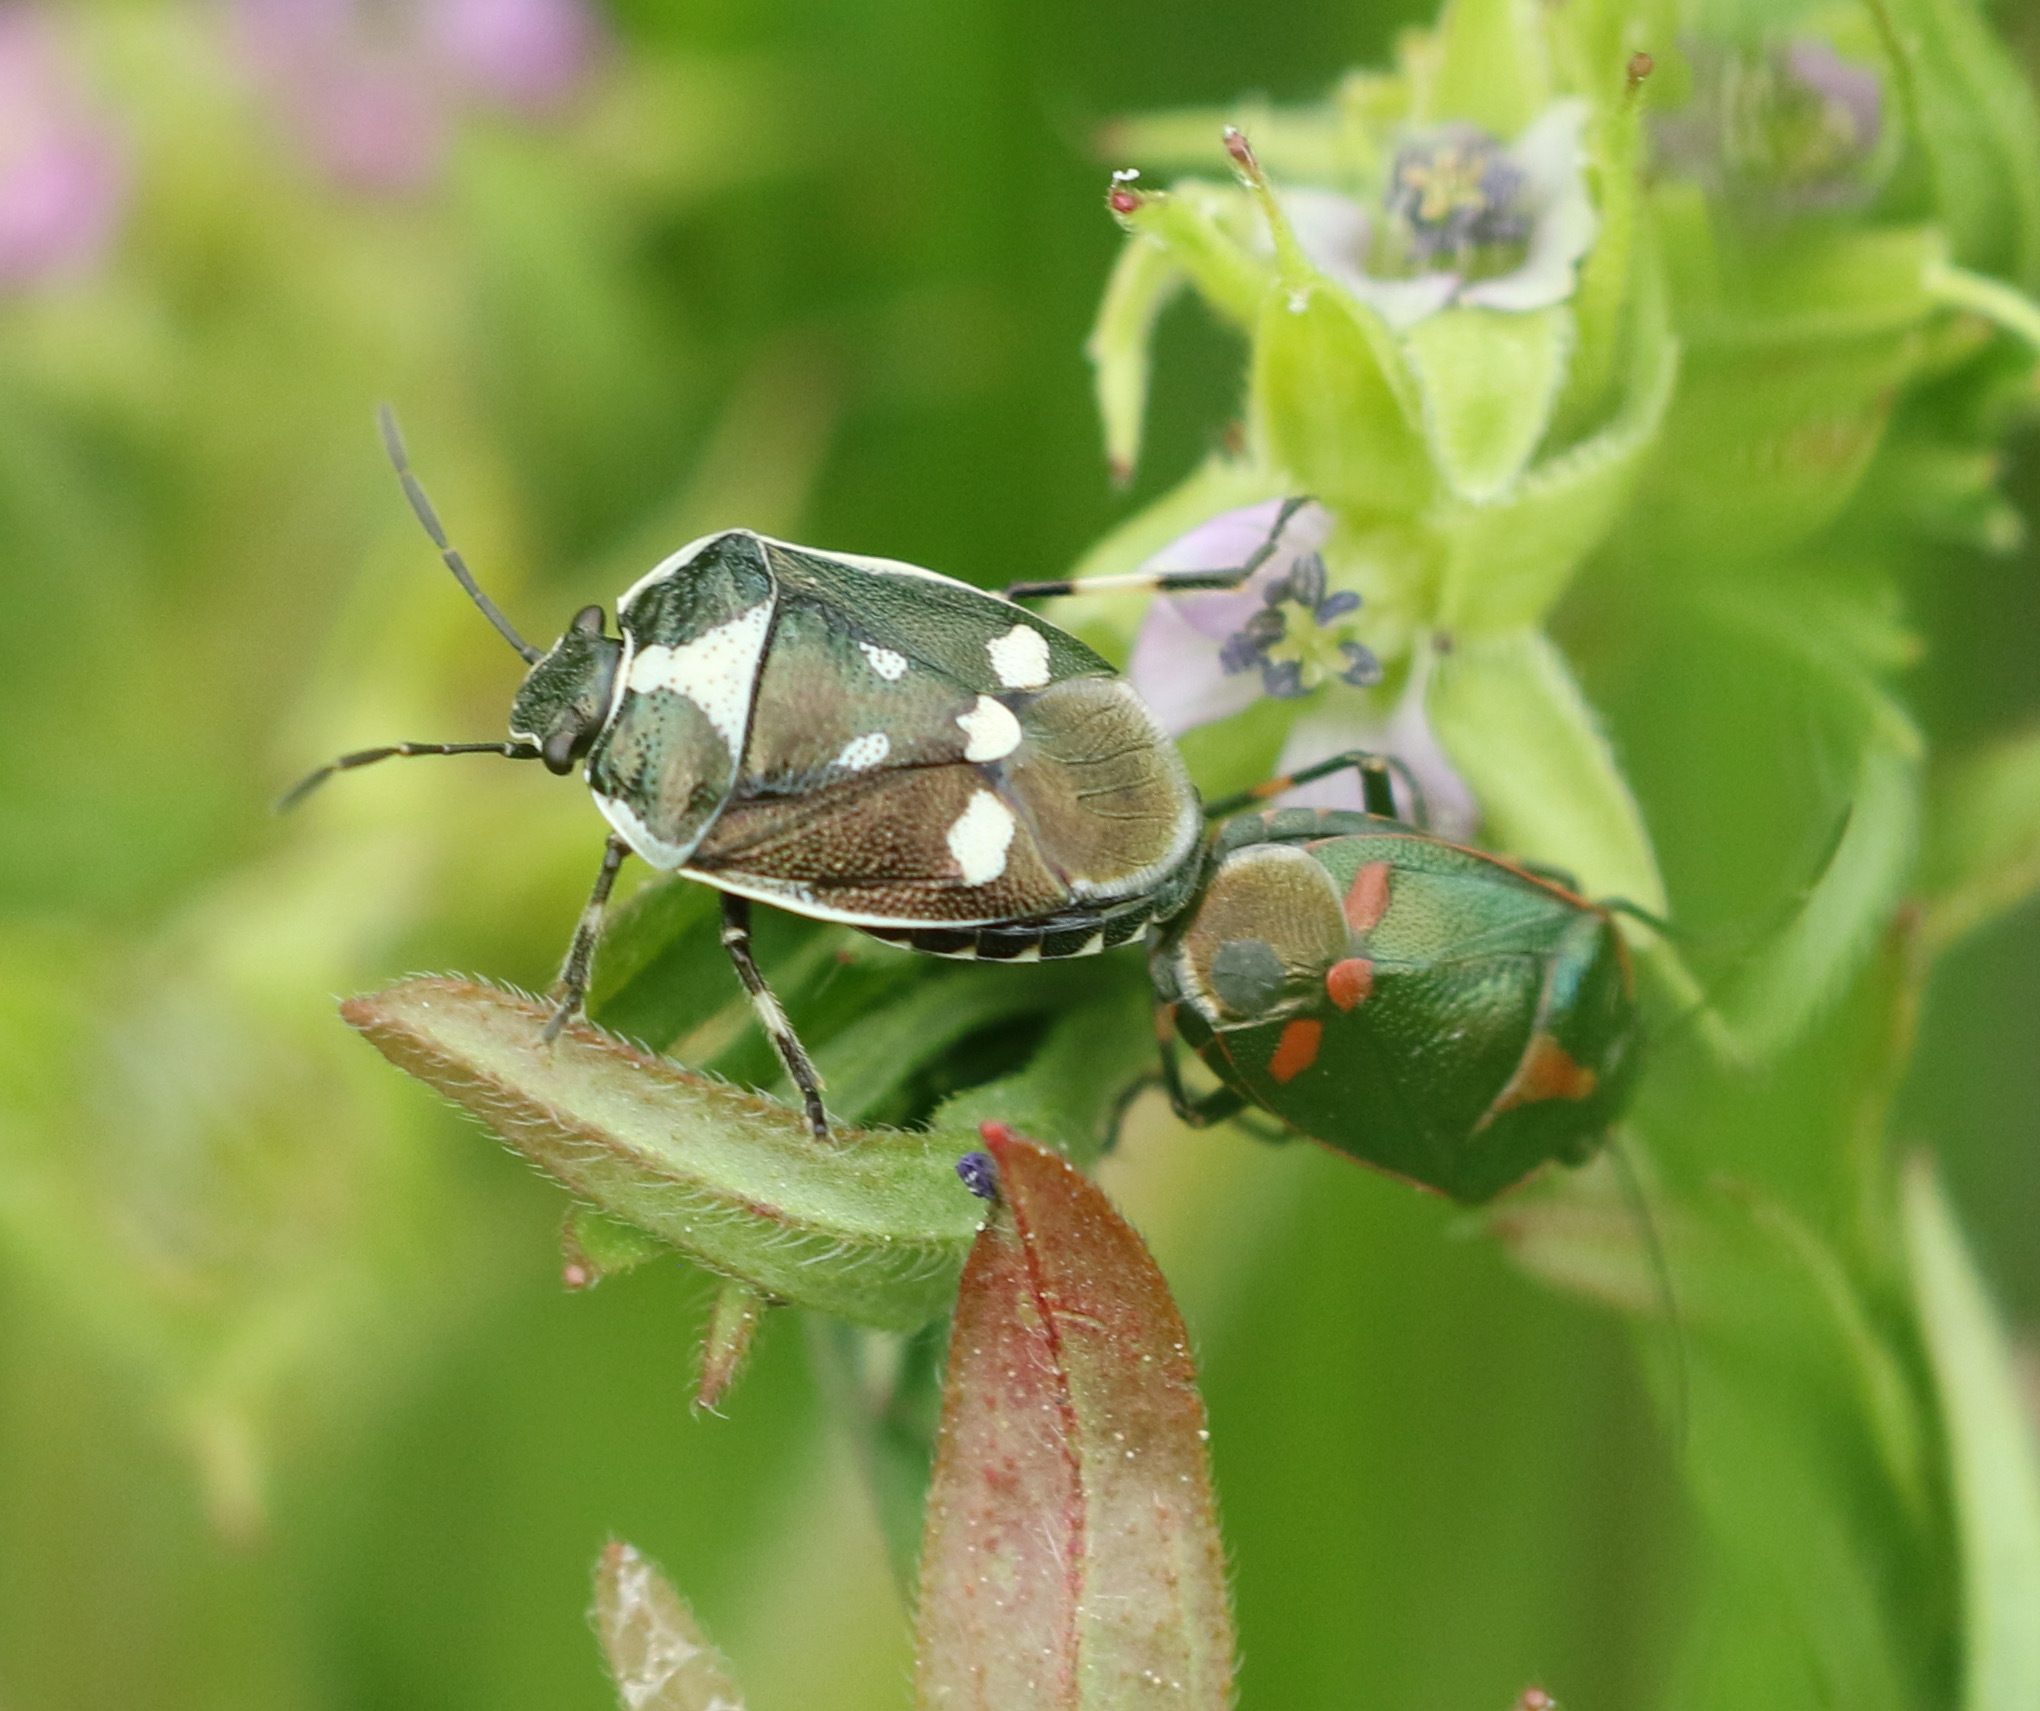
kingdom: Animalia
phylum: Arthropoda
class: Insecta
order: Hemiptera
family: Pentatomidae
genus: Eurydema
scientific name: Eurydema oleracea
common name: Cabbage bug
